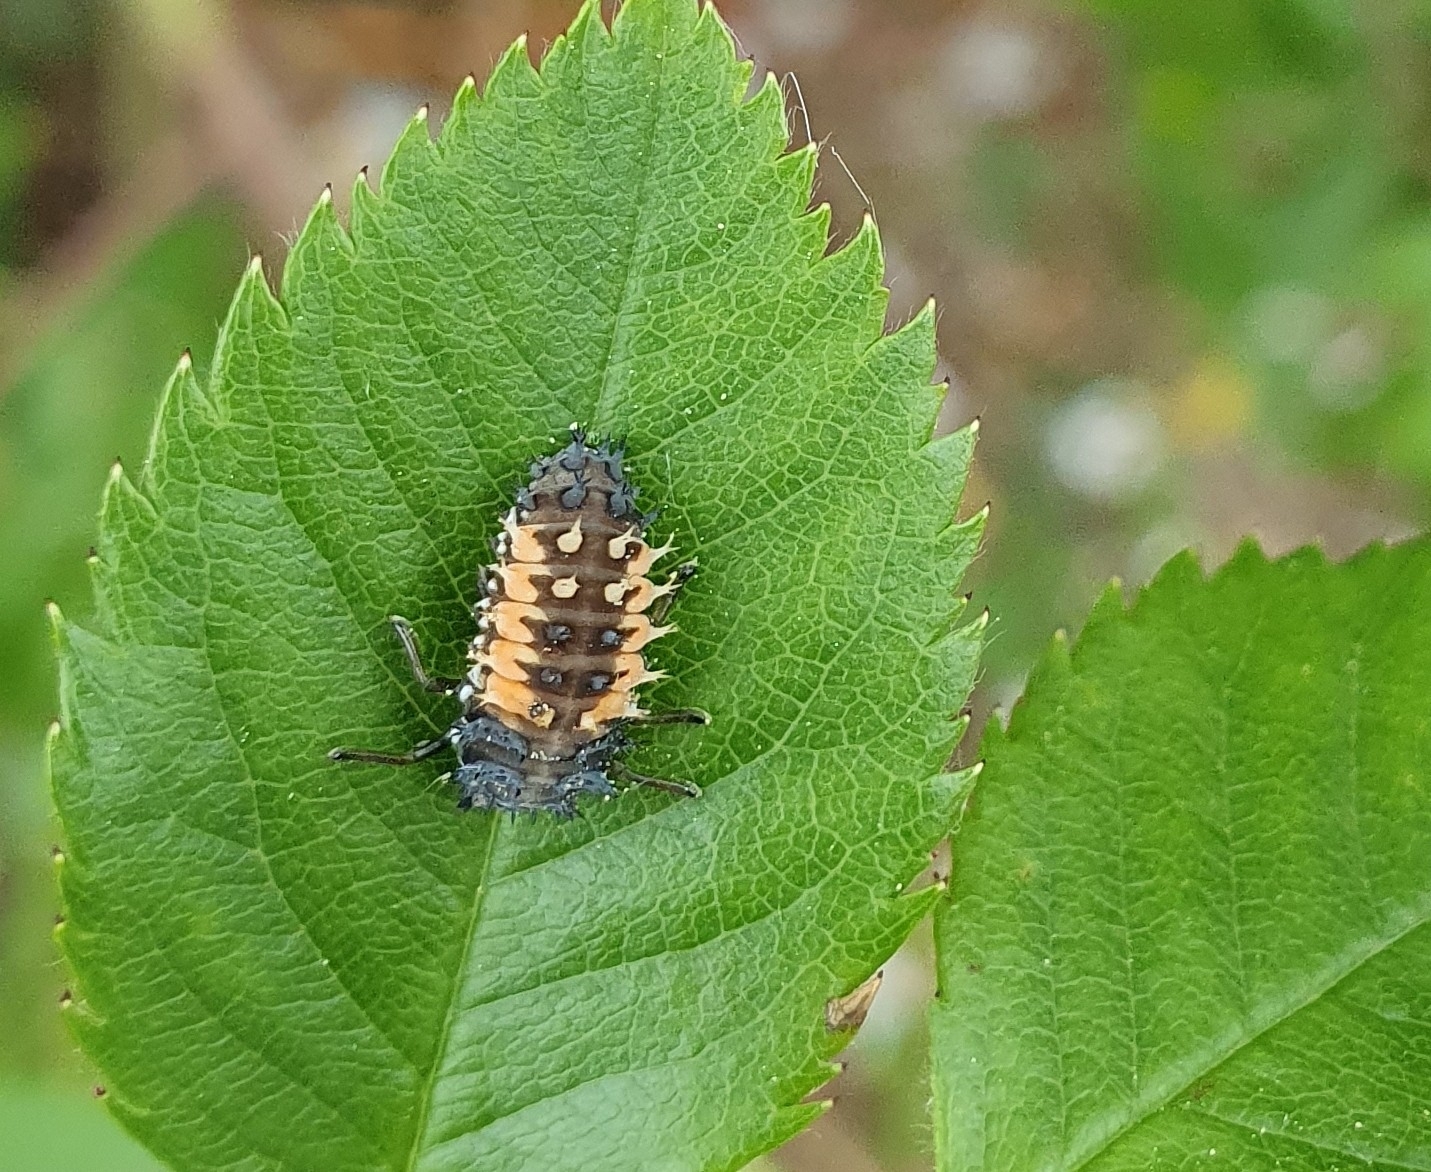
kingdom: Animalia
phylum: Arthropoda
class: Insecta
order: Coleoptera
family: Coccinellidae
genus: Harmonia
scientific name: Harmonia axyridis
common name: Harlequin ladybird
